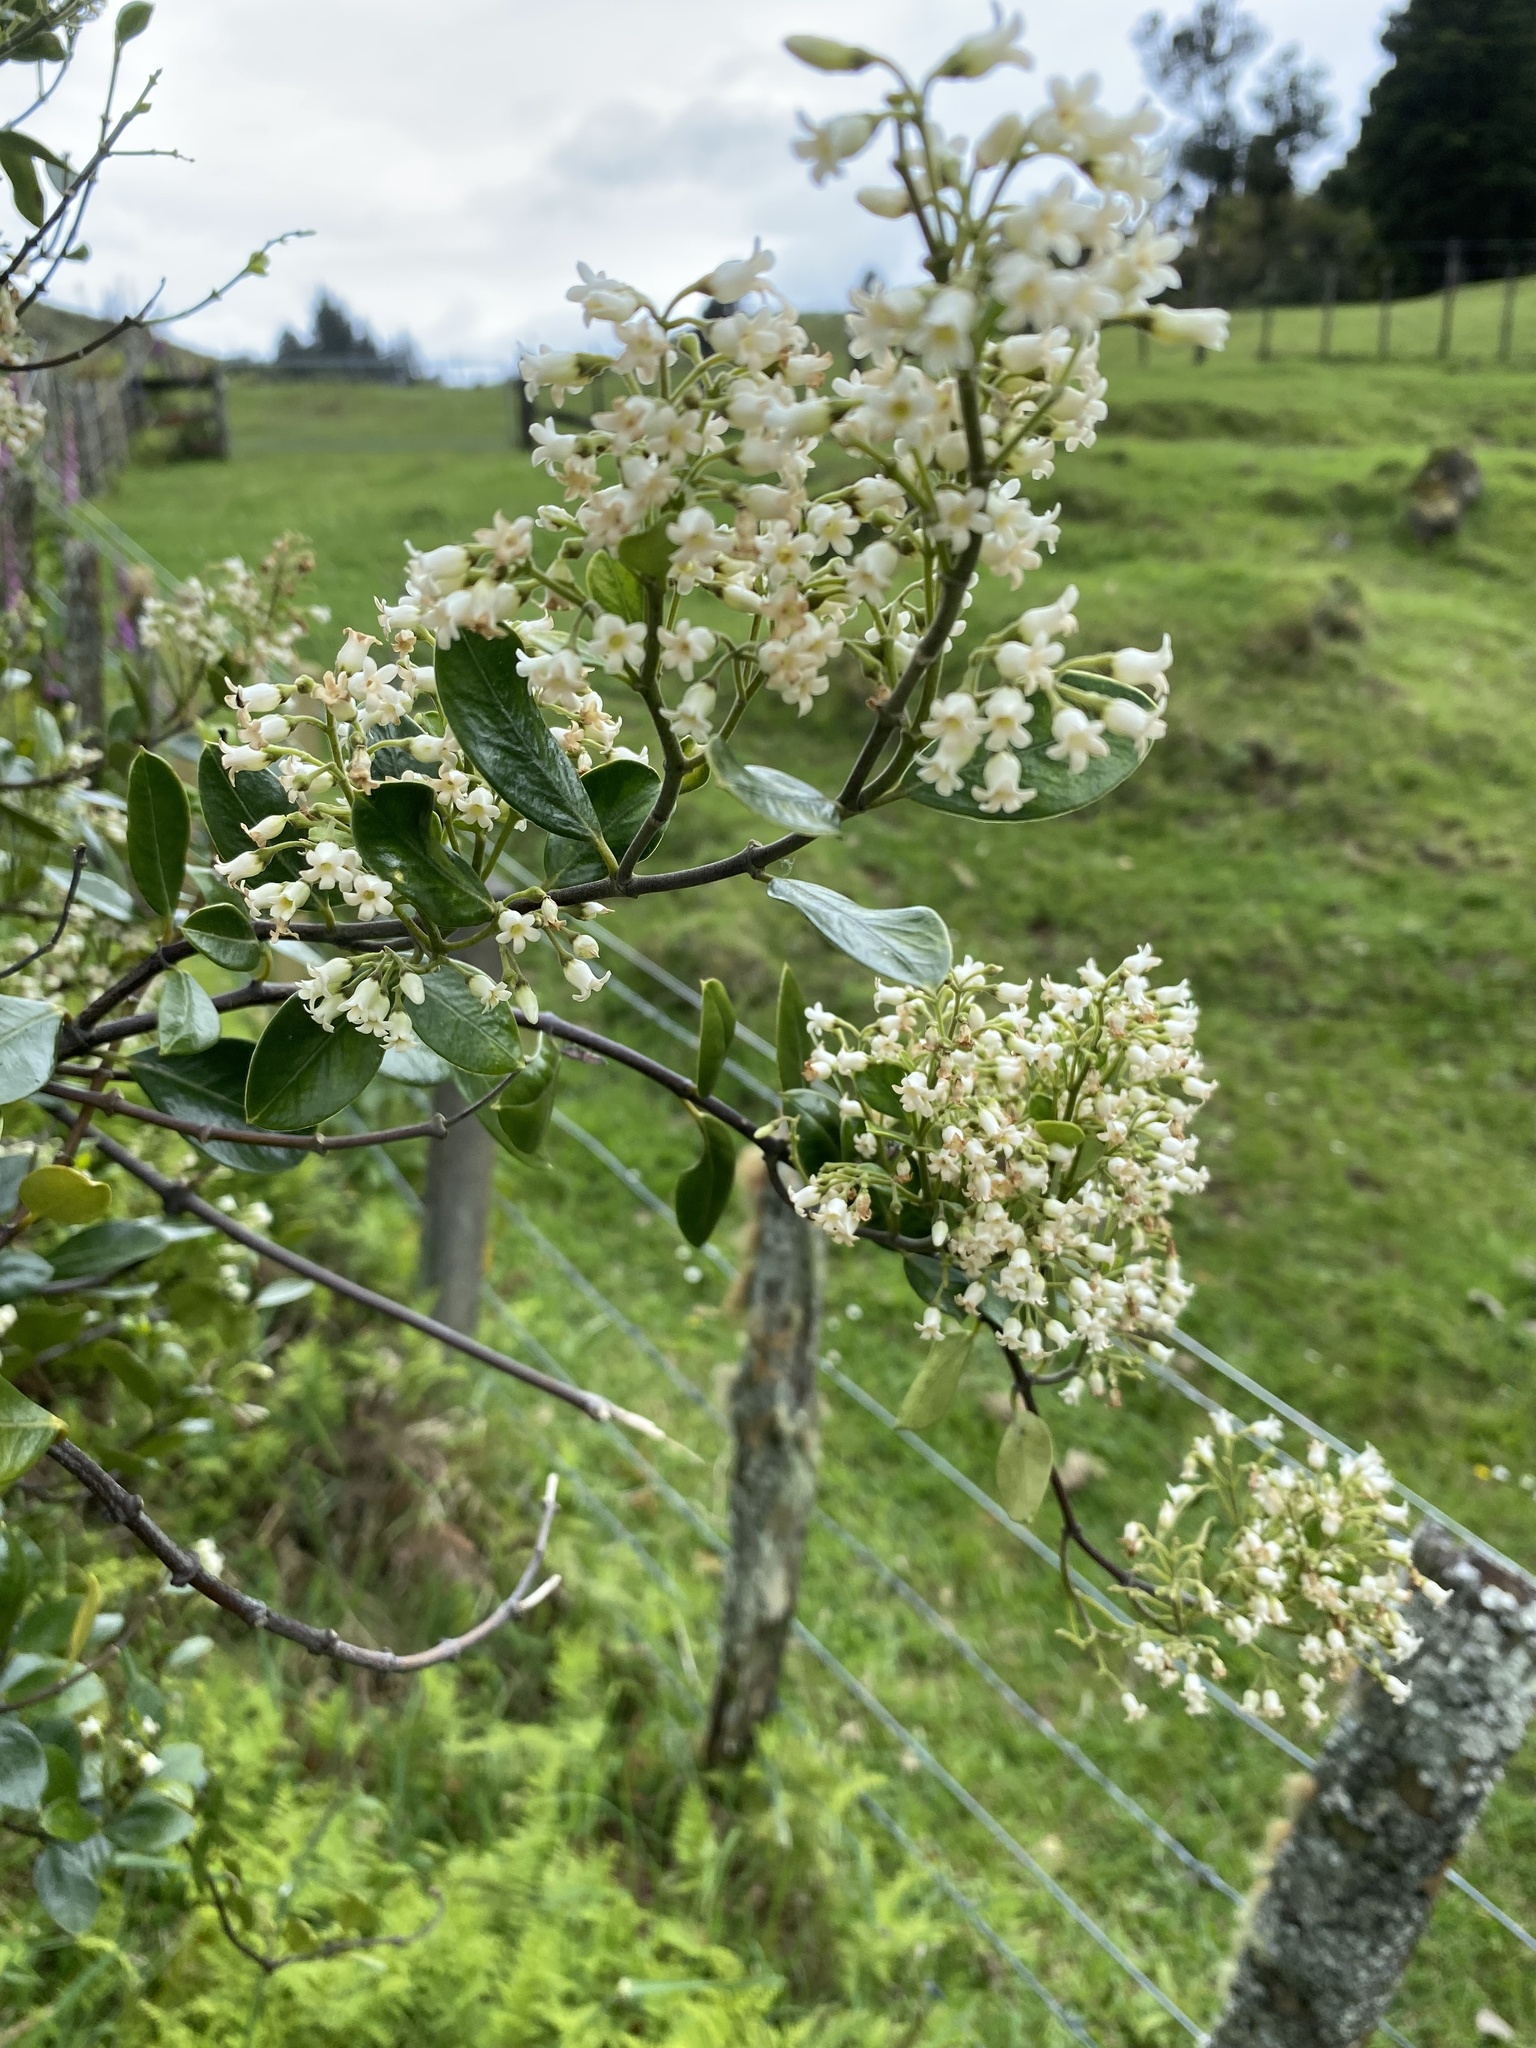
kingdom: Plantae
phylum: Tracheophyta
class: Magnoliopsida
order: Gentianales
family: Apocynaceae
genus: Parsonsia
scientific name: Parsonsia heterophylla
